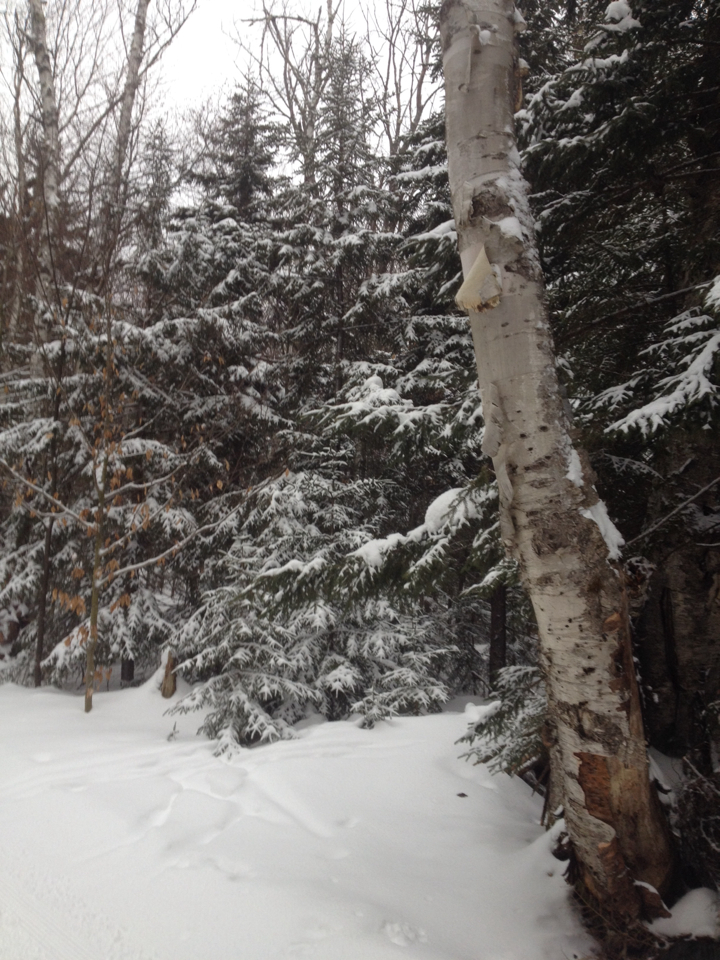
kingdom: Plantae
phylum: Tracheophyta
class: Pinopsida
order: Pinales
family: Pinaceae
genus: Picea
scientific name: Picea rubens
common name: Red spruce
